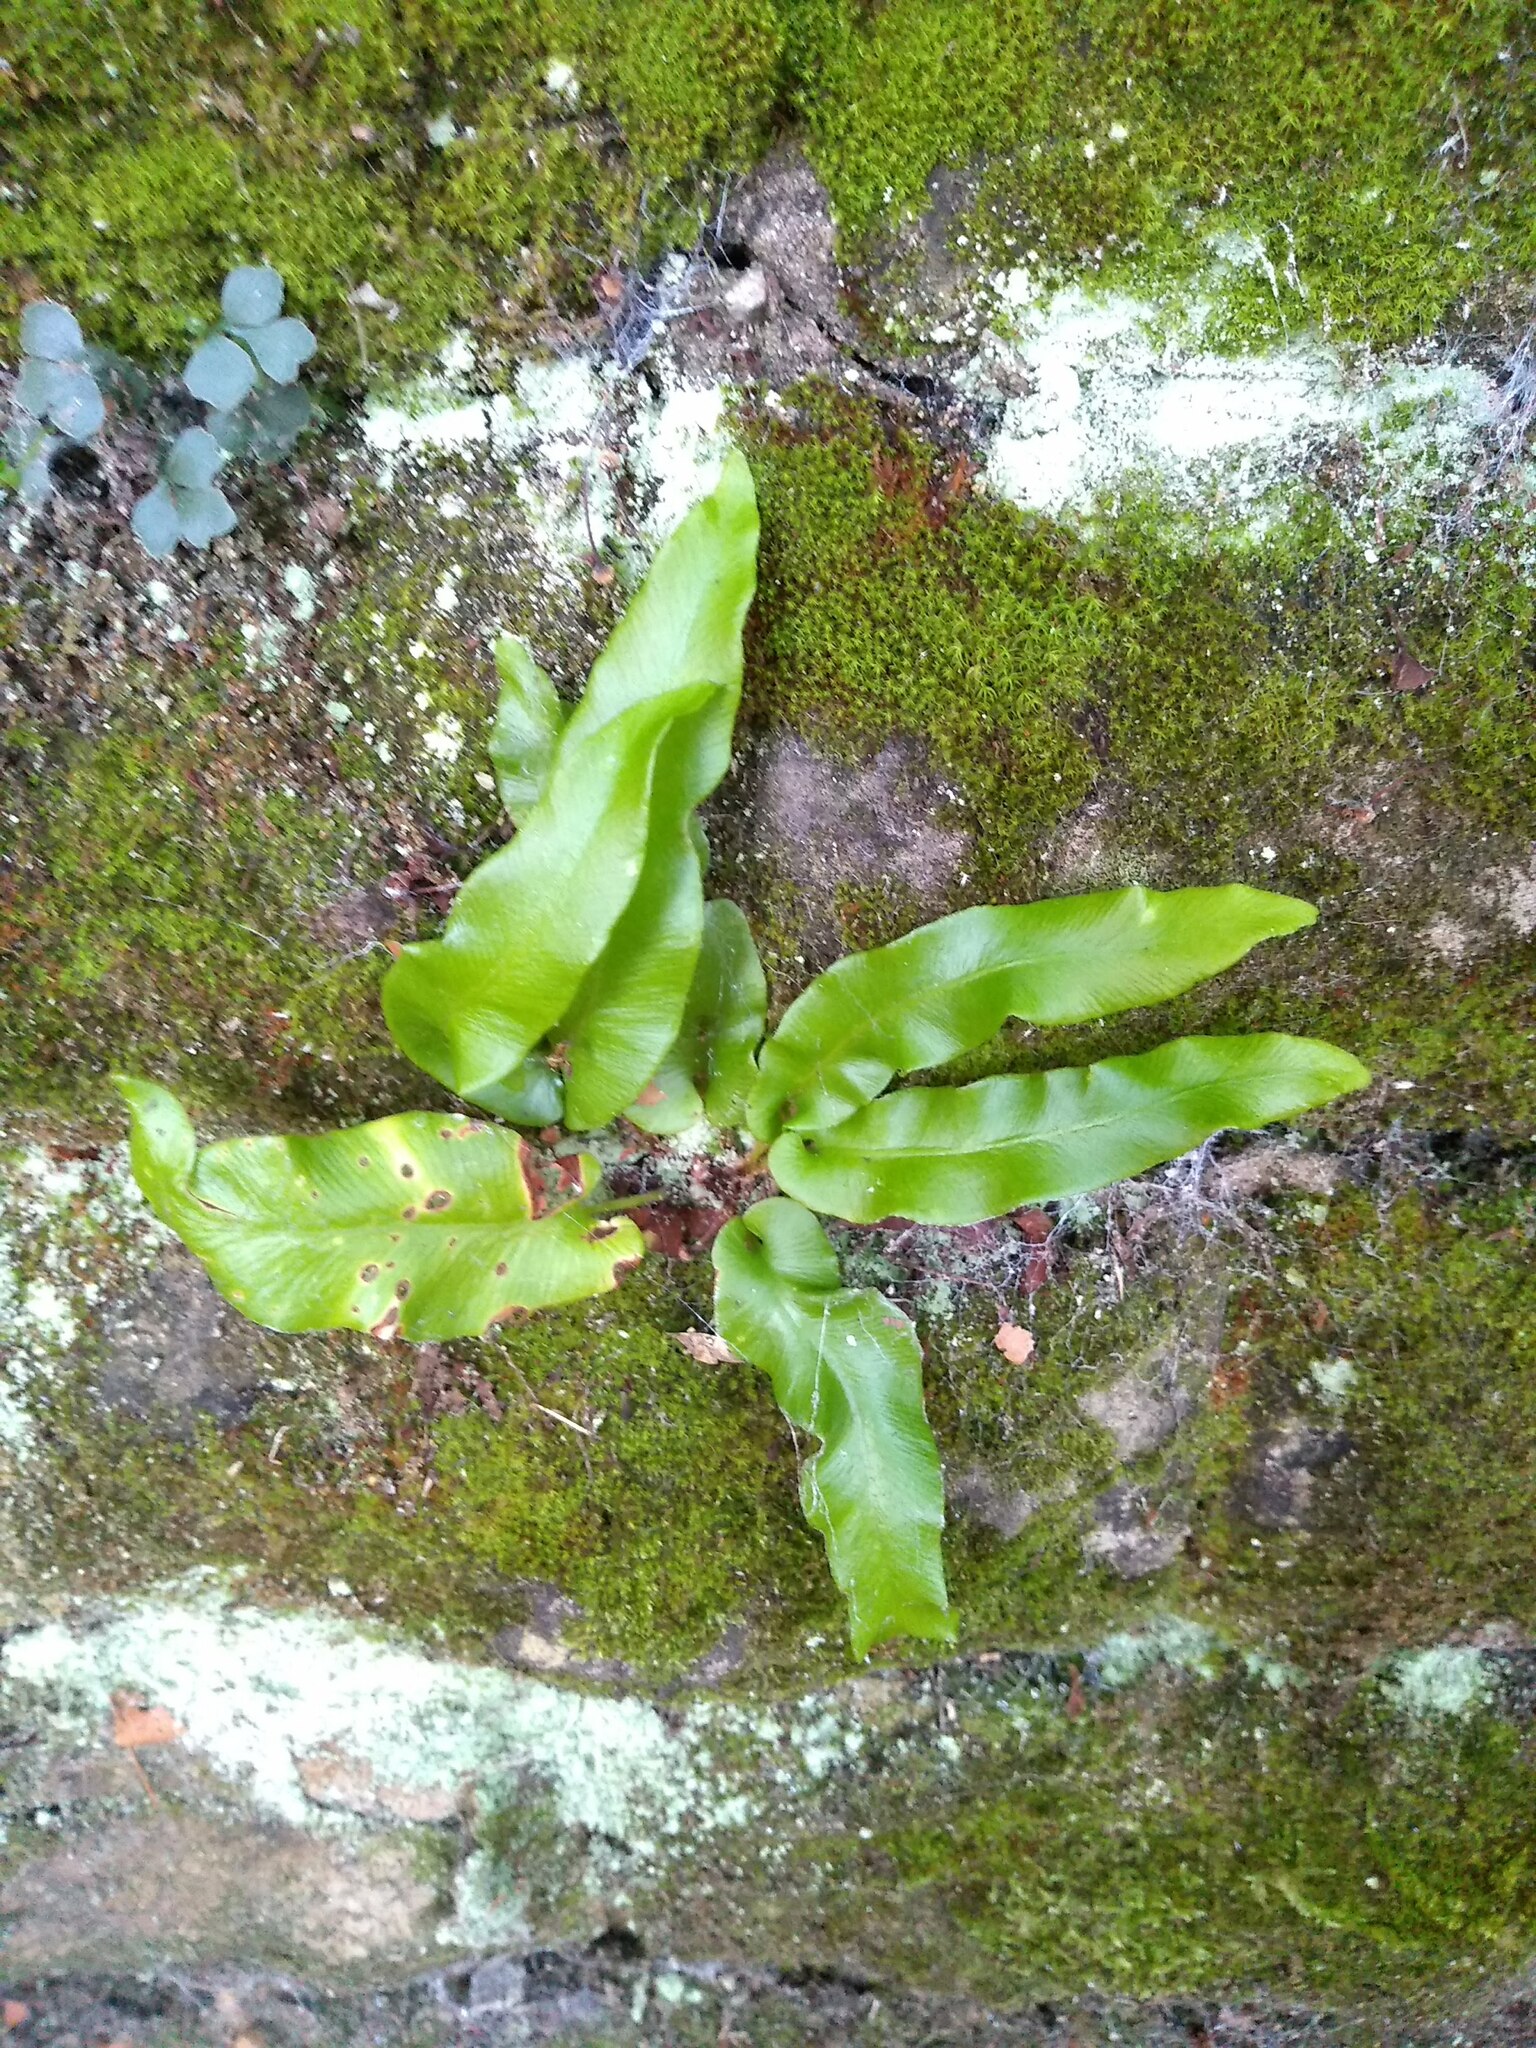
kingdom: Plantae
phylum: Tracheophyta
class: Polypodiopsida
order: Polypodiales
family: Aspleniaceae
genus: Asplenium
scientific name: Asplenium scolopendrium
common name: Hart's-tongue fern
